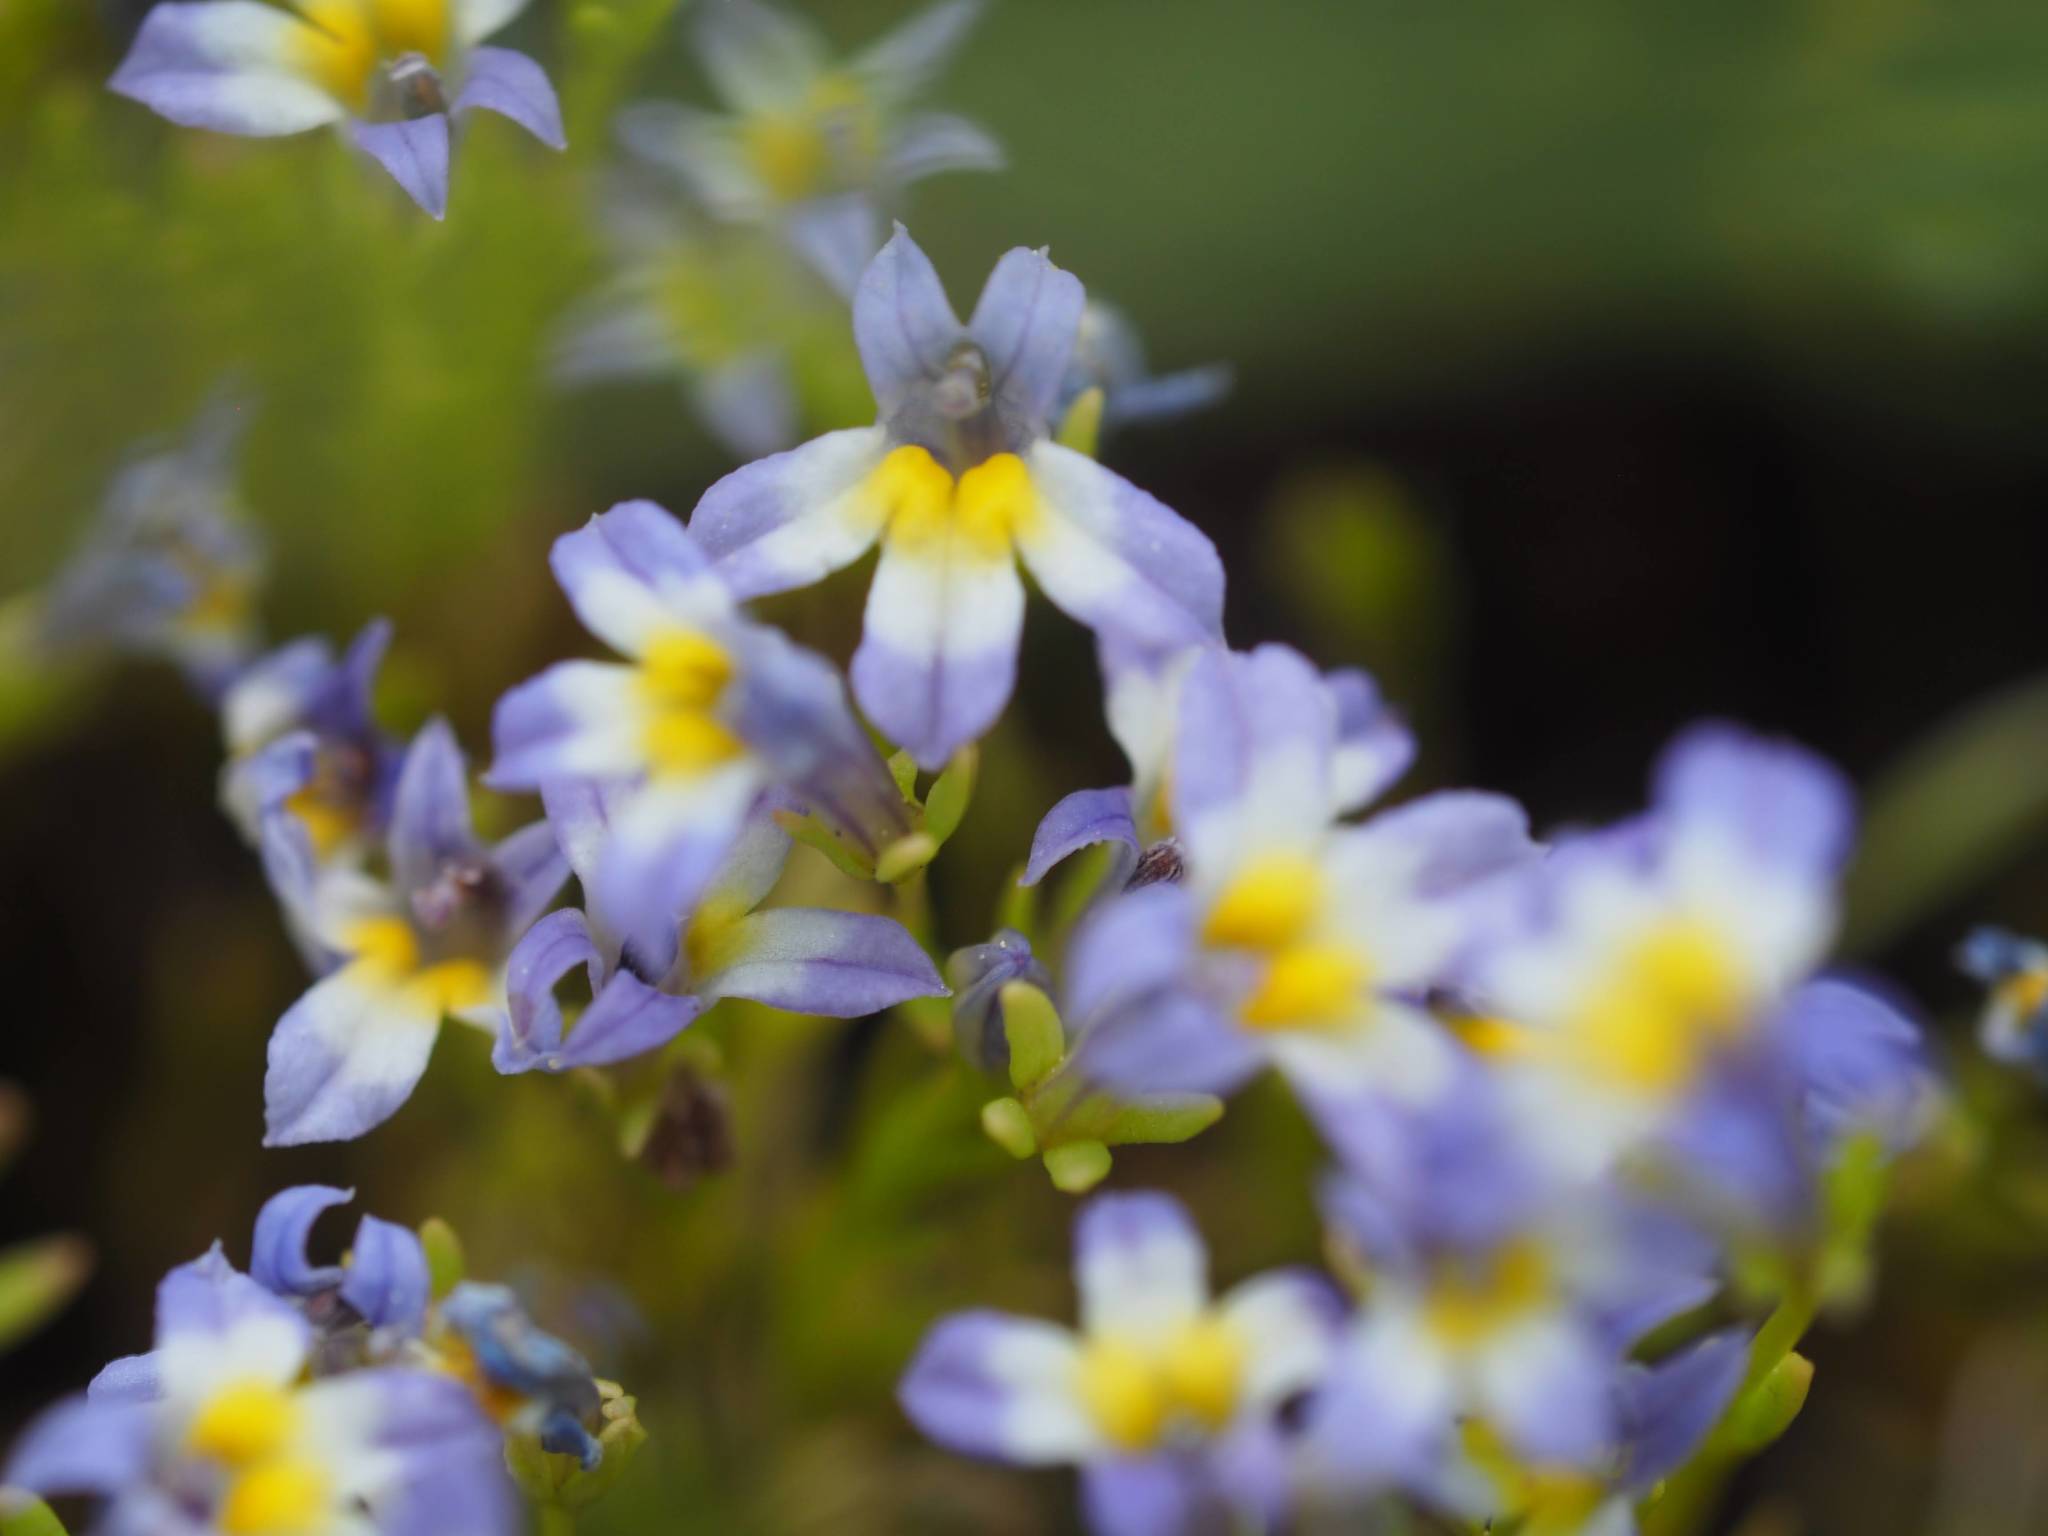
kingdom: Plantae
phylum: Tracheophyta
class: Magnoliopsida
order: Asterales
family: Campanulaceae
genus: Porterella
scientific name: Porterella carnosula
